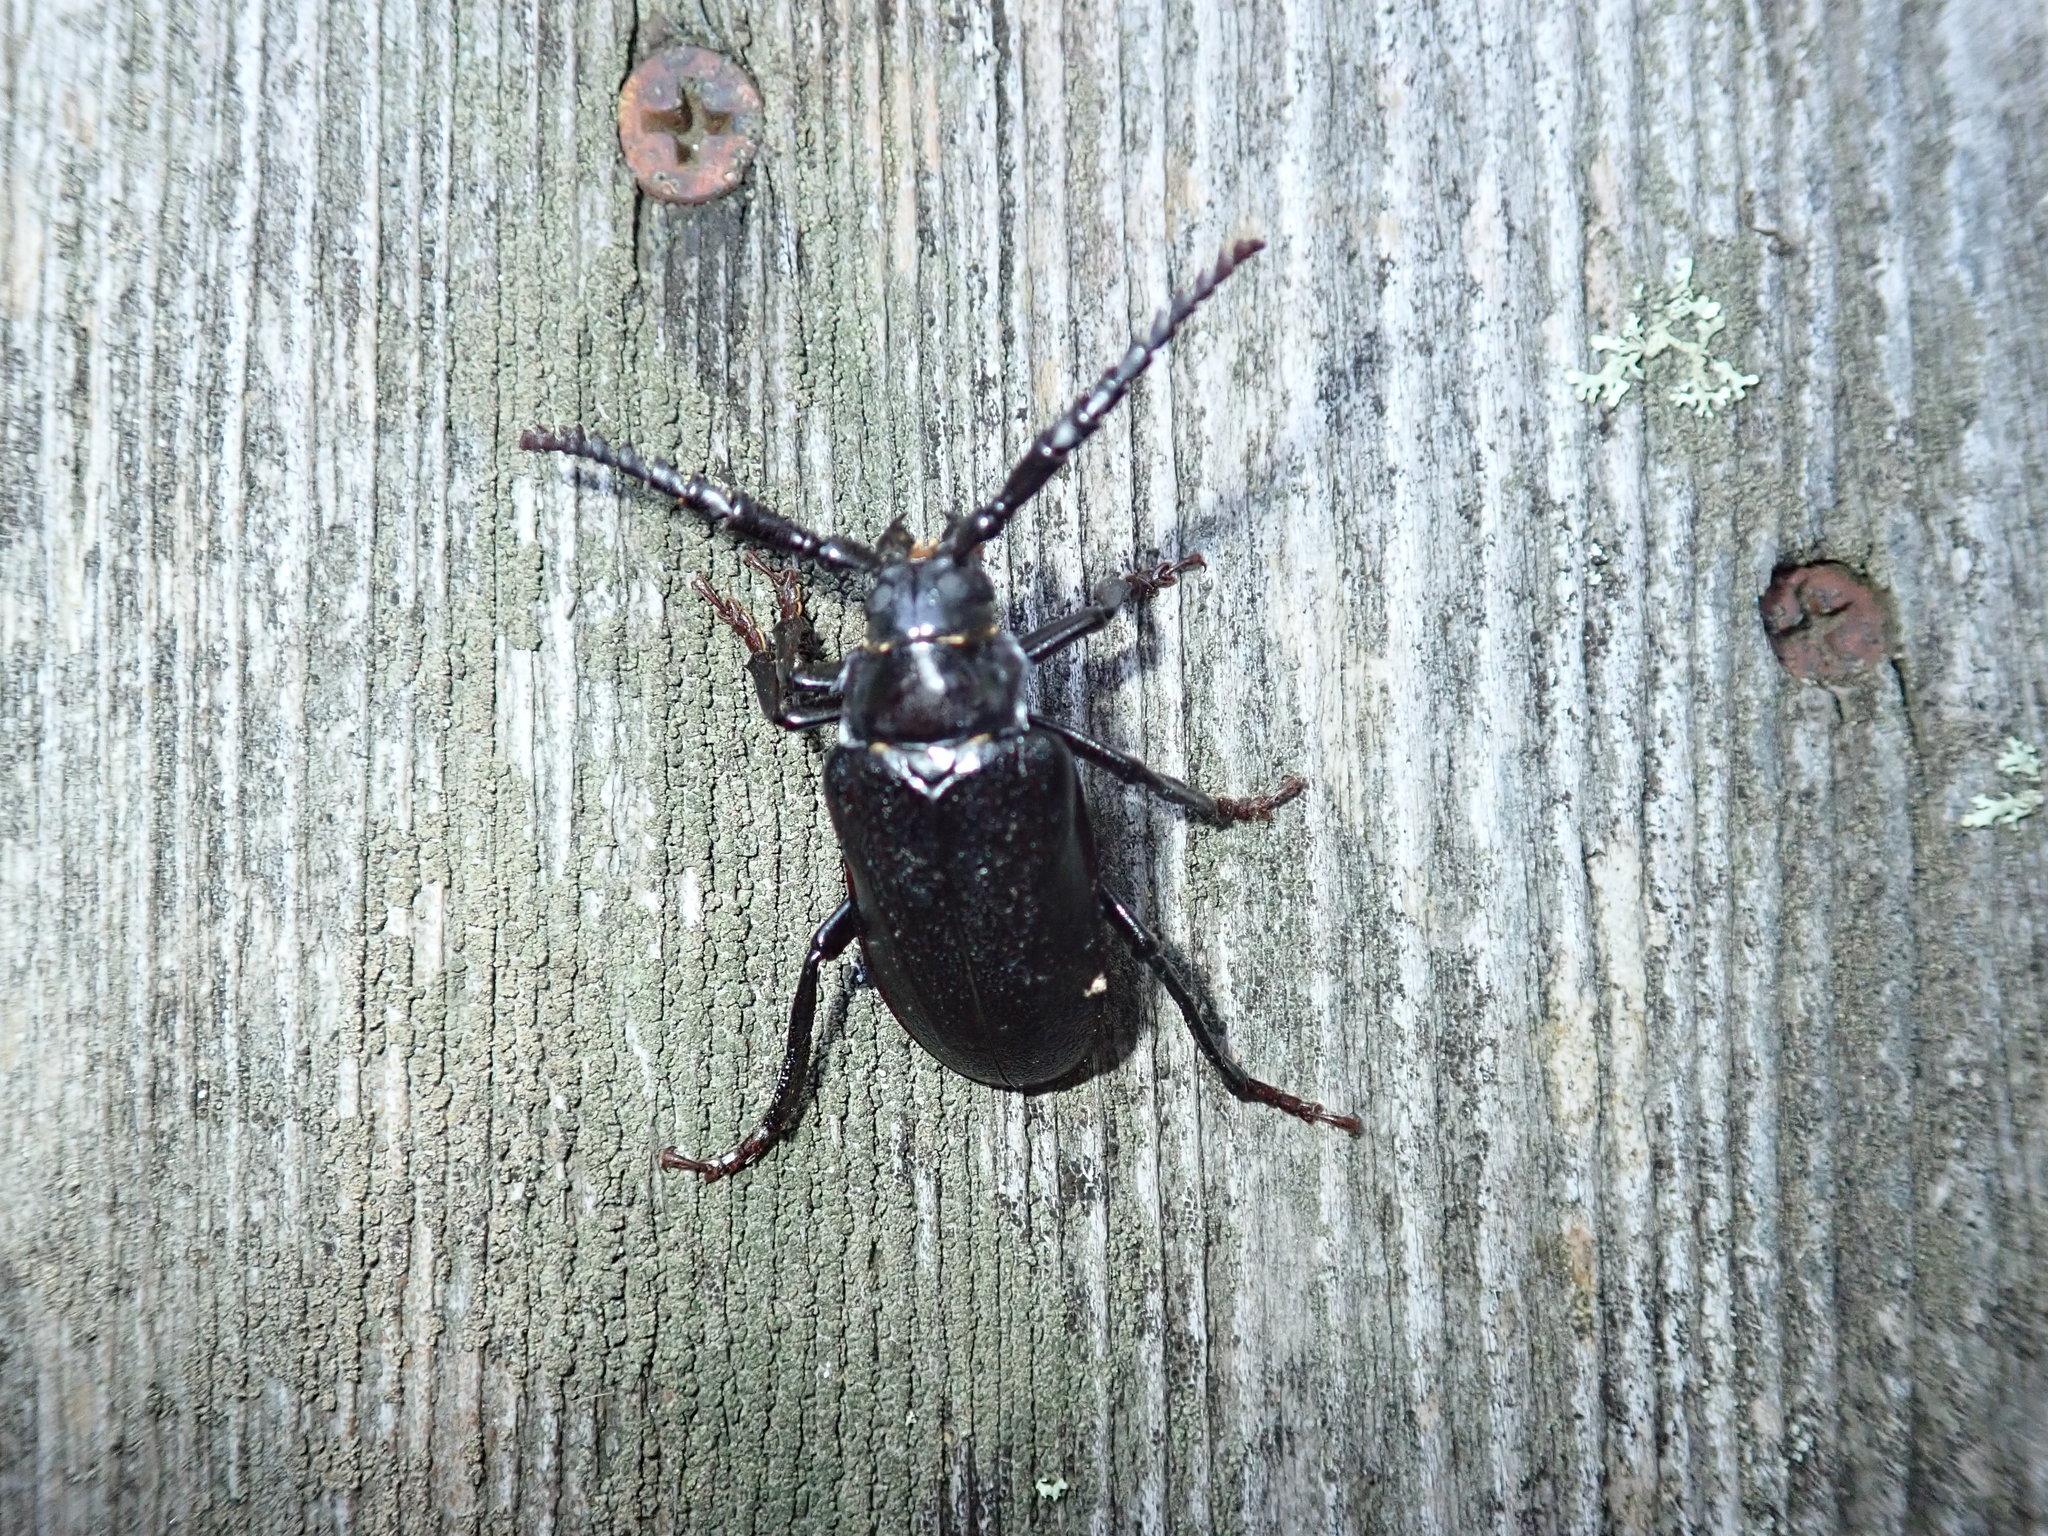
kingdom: Animalia
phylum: Arthropoda
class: Insecta
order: Coleoptera
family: Cerambycidae
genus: Prionus
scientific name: Prionus laticollis
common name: Broad necked prionus
